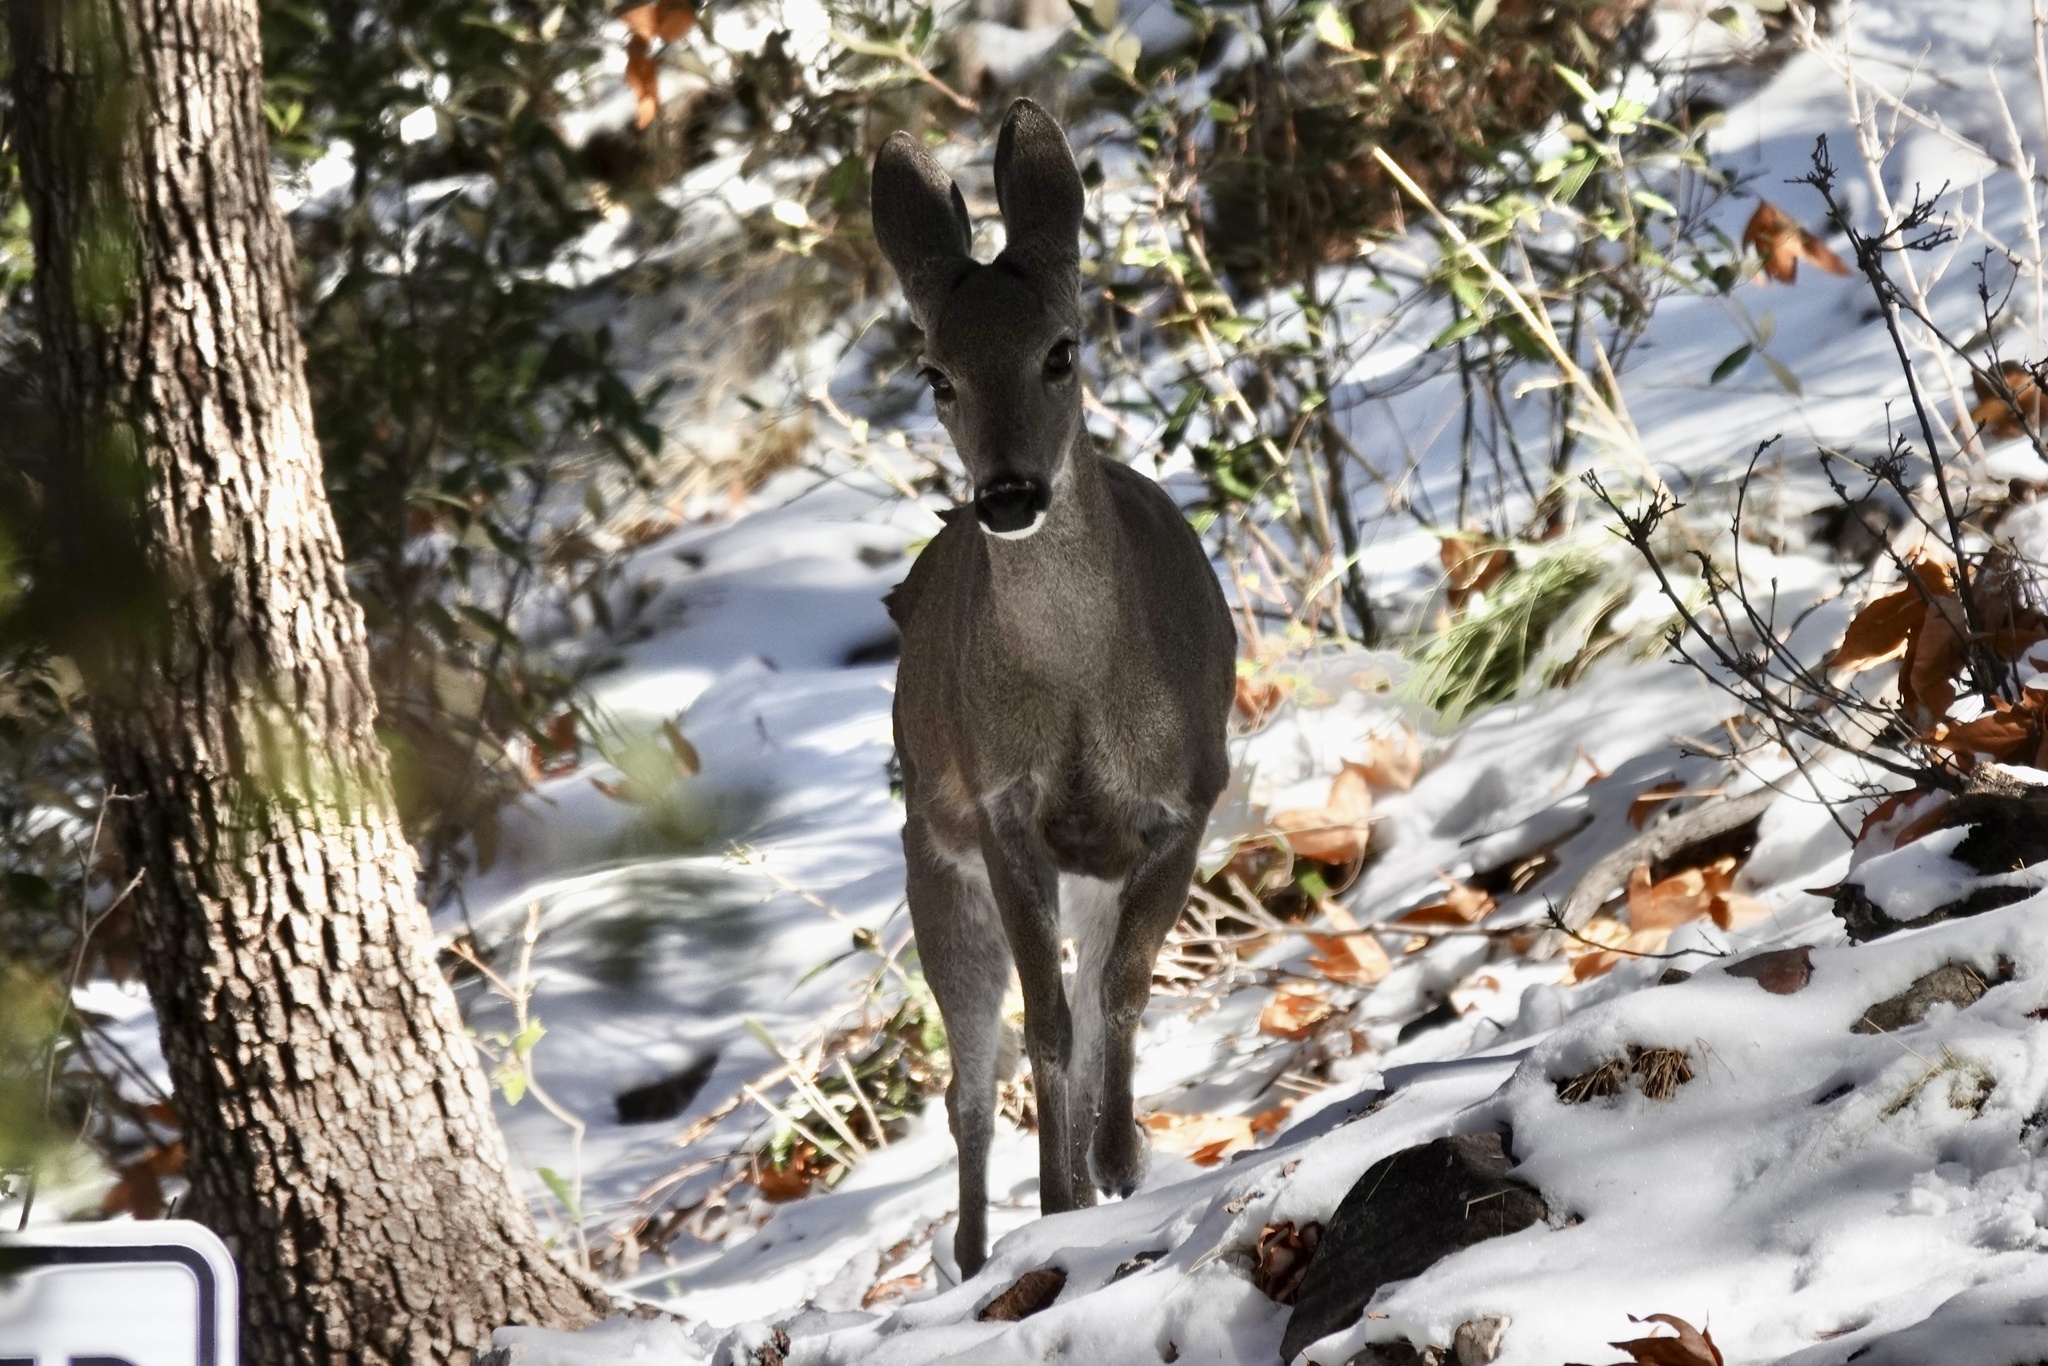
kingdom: Animalia
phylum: Chordata
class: Mammalia
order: Artiodactyla
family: Cervidae
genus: Odocoileus
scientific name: Odocoileus virginianus
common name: White-tailed deer
